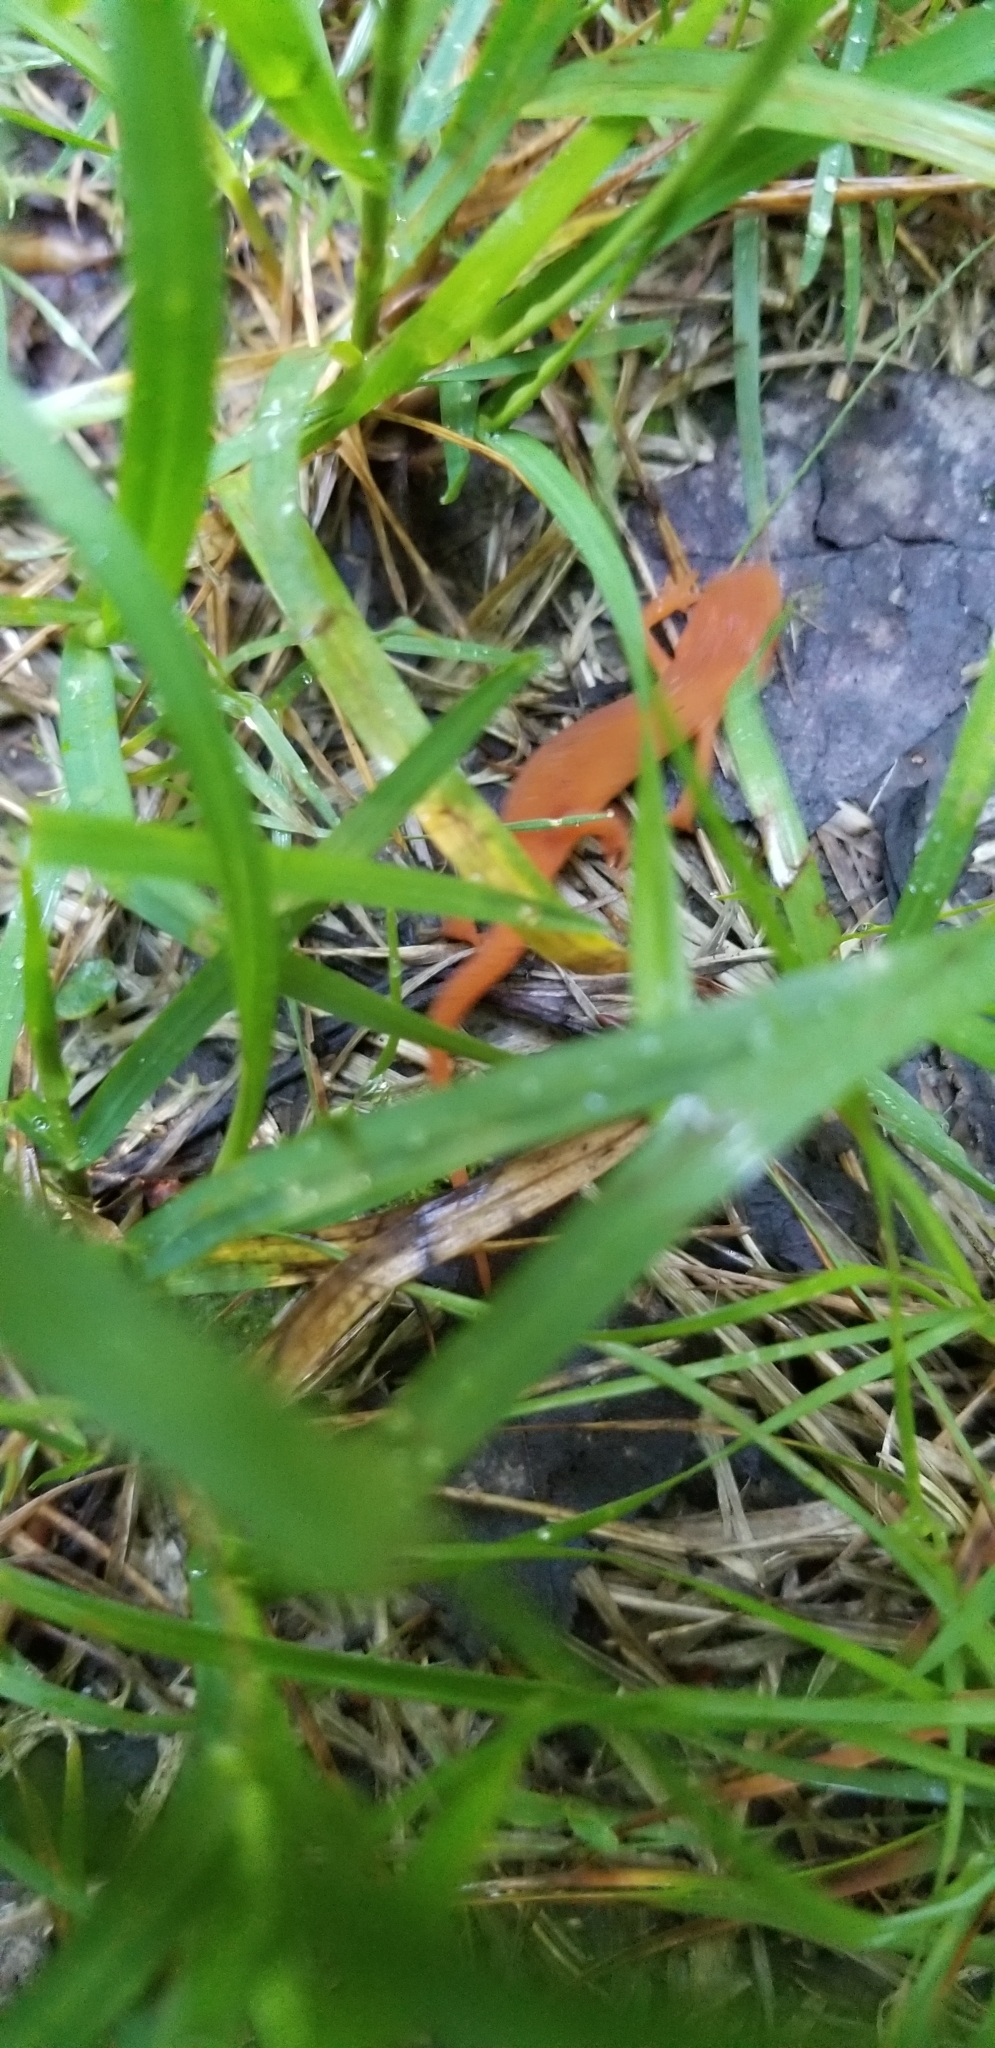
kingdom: Animalia
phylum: Chordata
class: Amphibia
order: Caudata
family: Salamandridae
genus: Notophthalmus
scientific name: Notophthalmus viridescens
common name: Eastern newt
